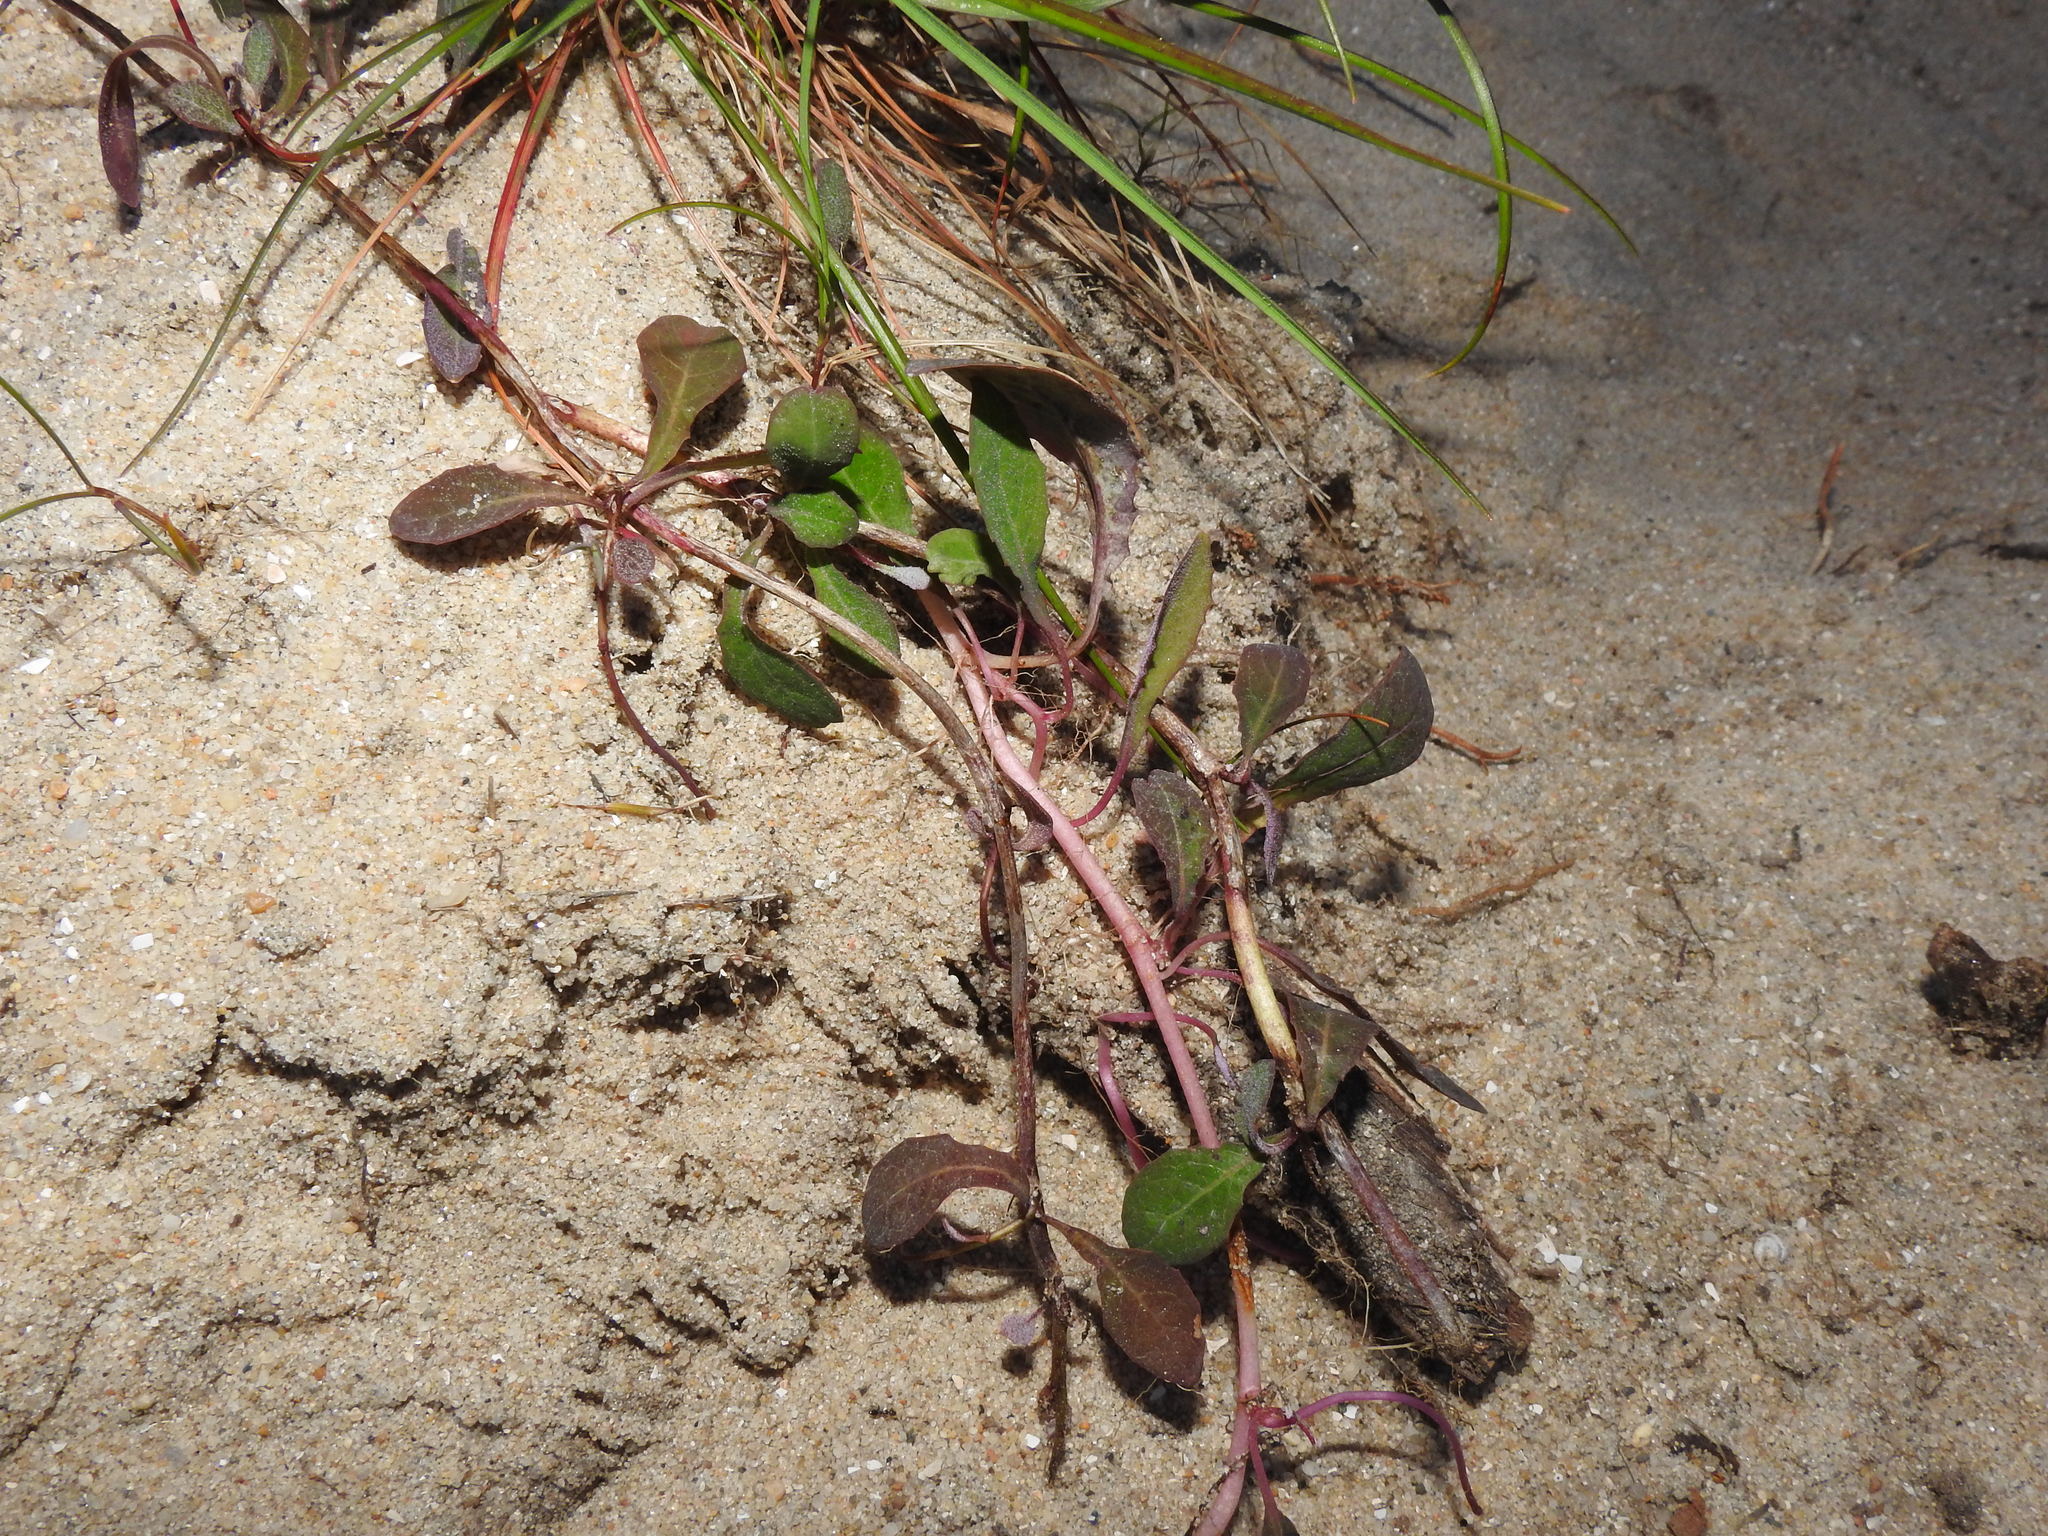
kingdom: Plantae
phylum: Tracheophyta
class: Magnoliopsida
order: Asterales
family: Asteraceae
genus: Aetheorhiza
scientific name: Aetheorhiza bulbosa
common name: Tuberous hawk's-beard
